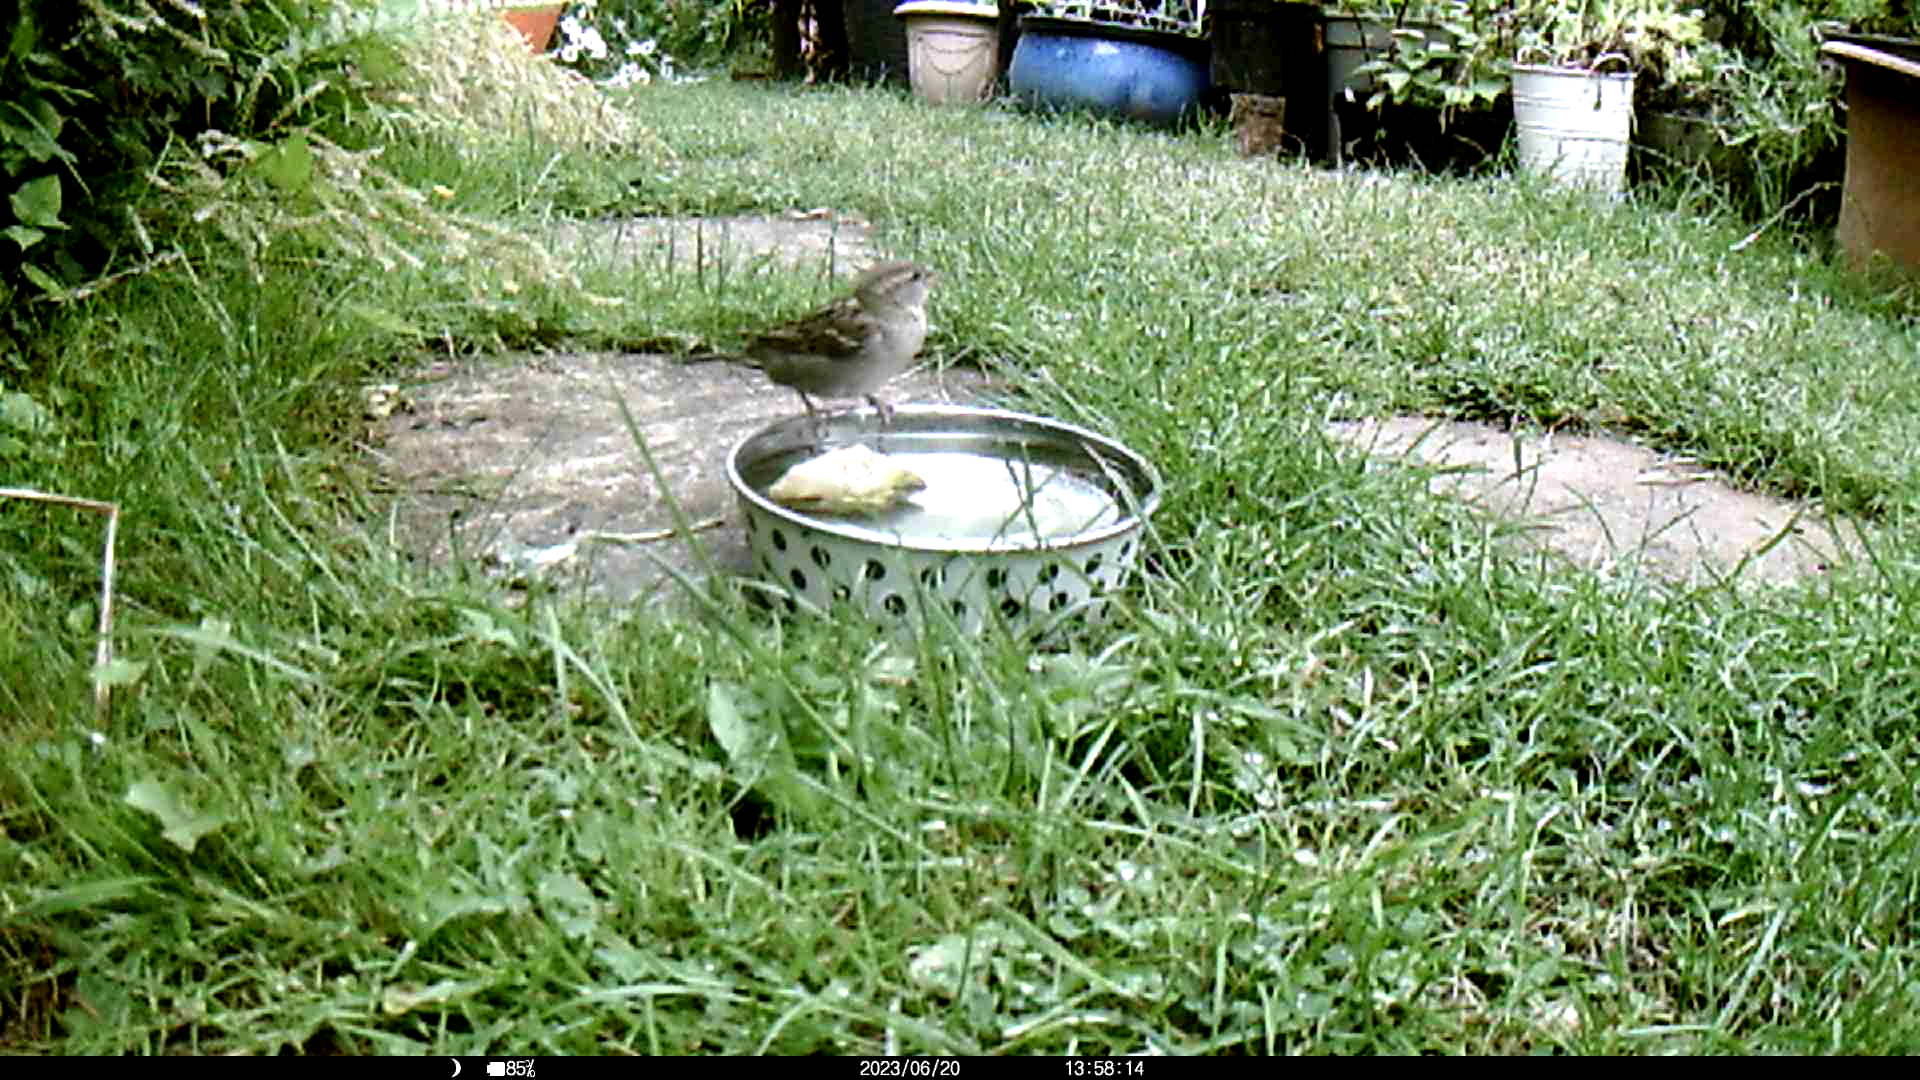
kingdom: Animalia
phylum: Chordata
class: Aves
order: Passeriformes
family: Passeridae
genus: Passer
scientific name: Passer domesticus
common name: House sparrow
